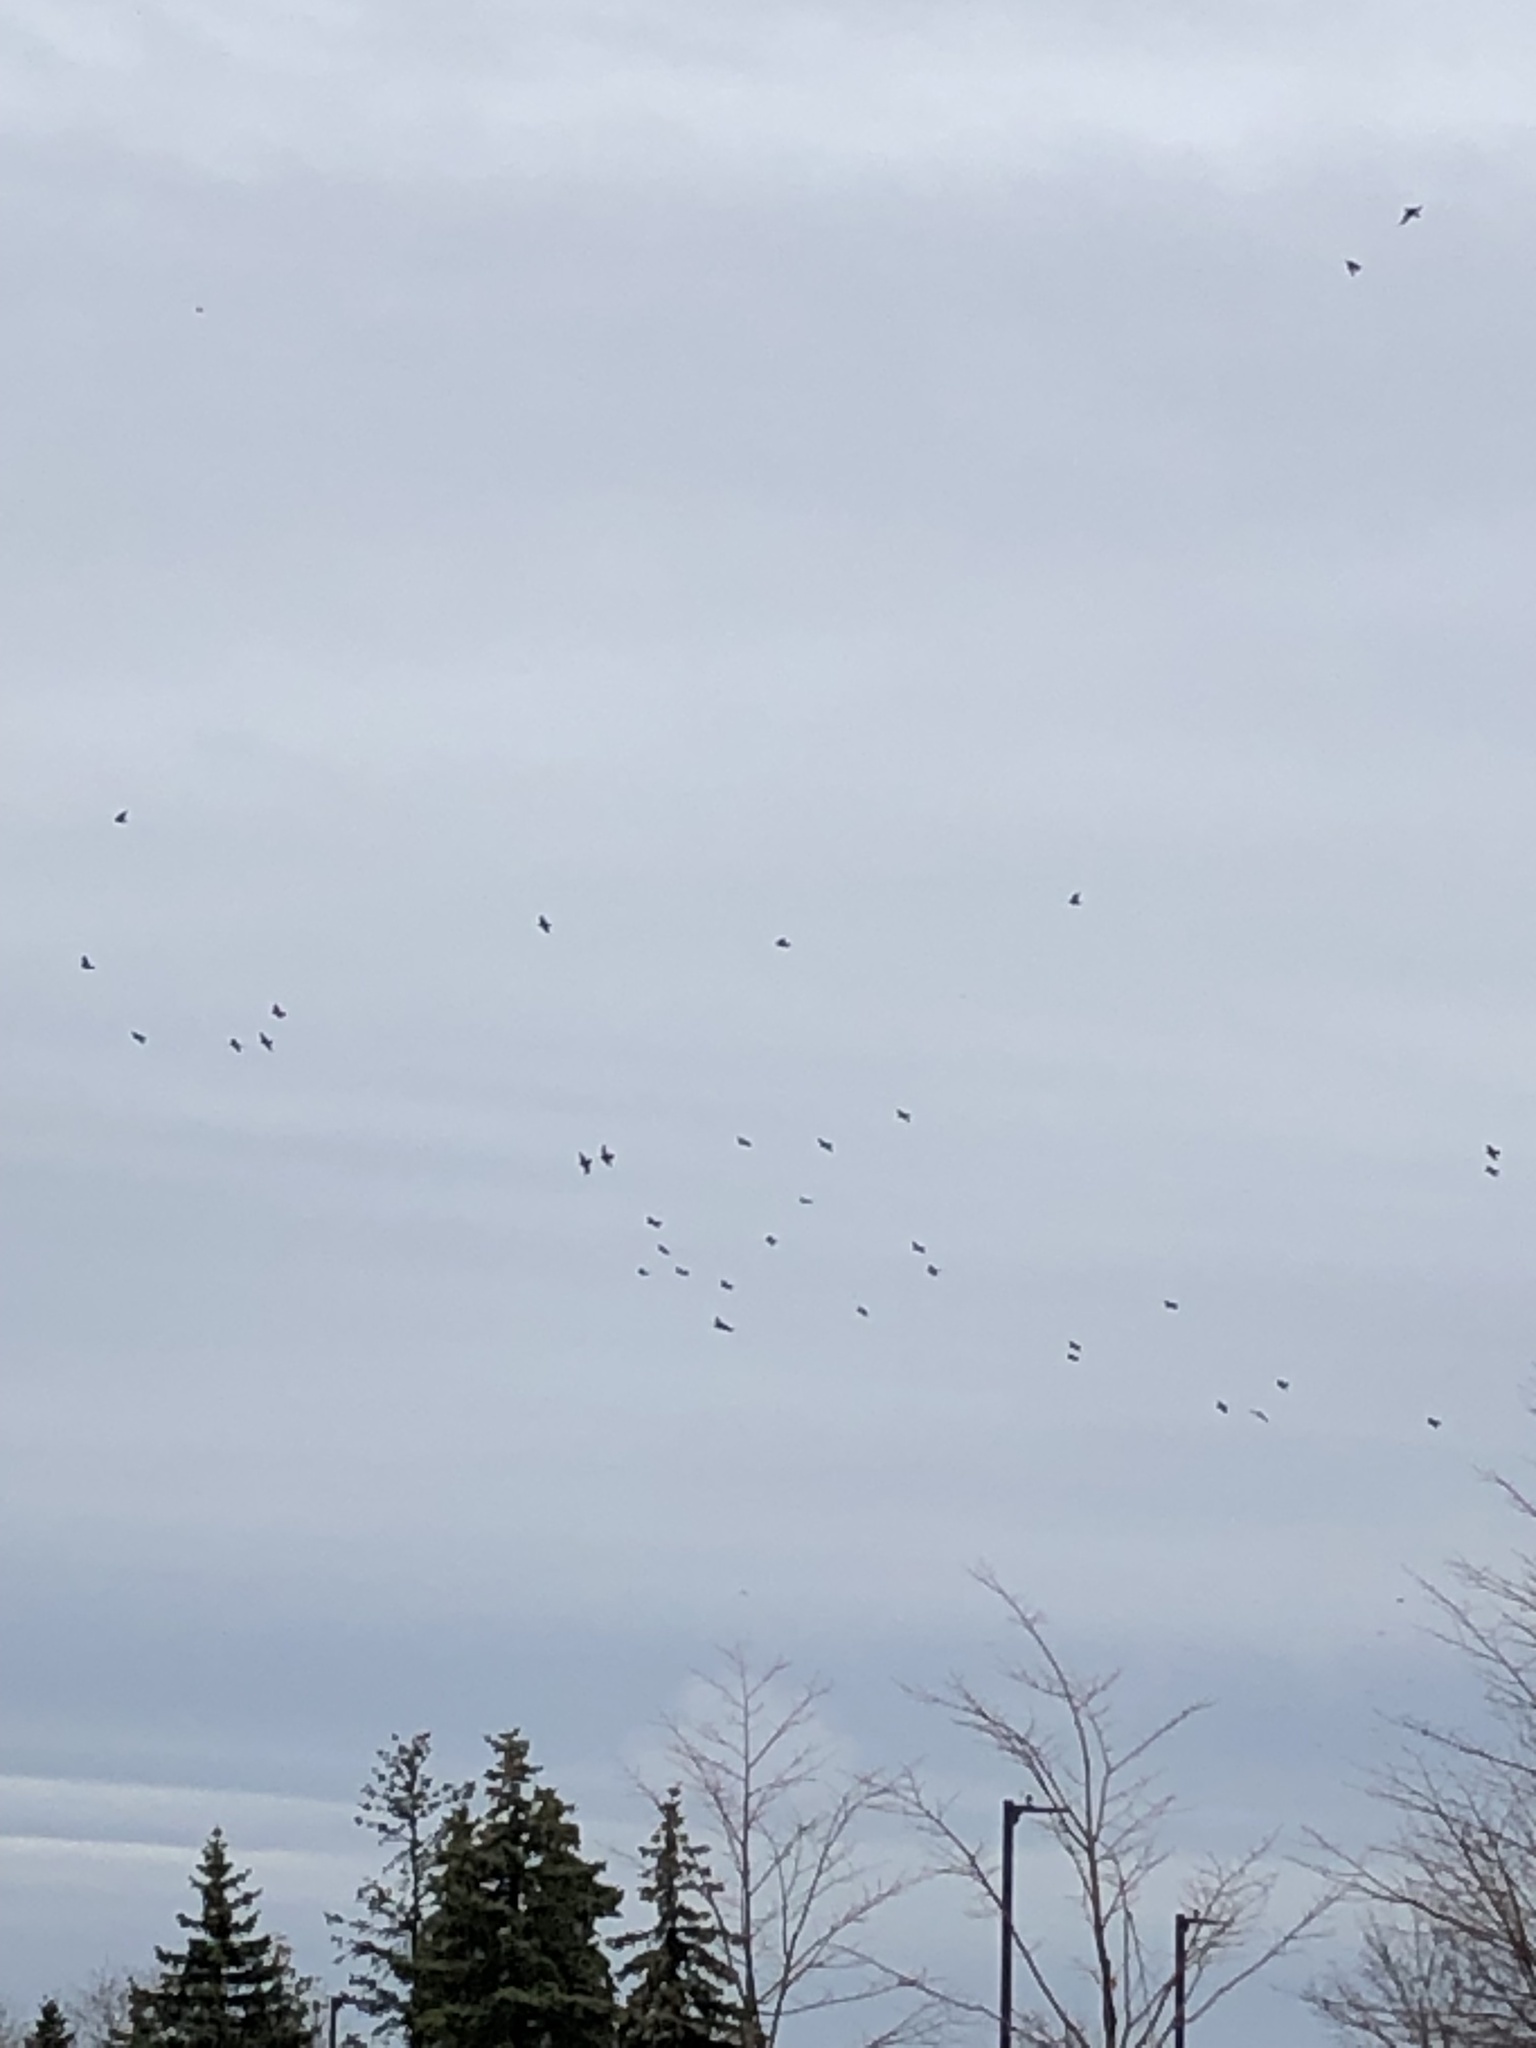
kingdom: Animalia
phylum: Chordata
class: Aves
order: Passeriformes
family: Sturnidae
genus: Sturnus
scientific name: Sturnus vulgaris
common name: Common starling
